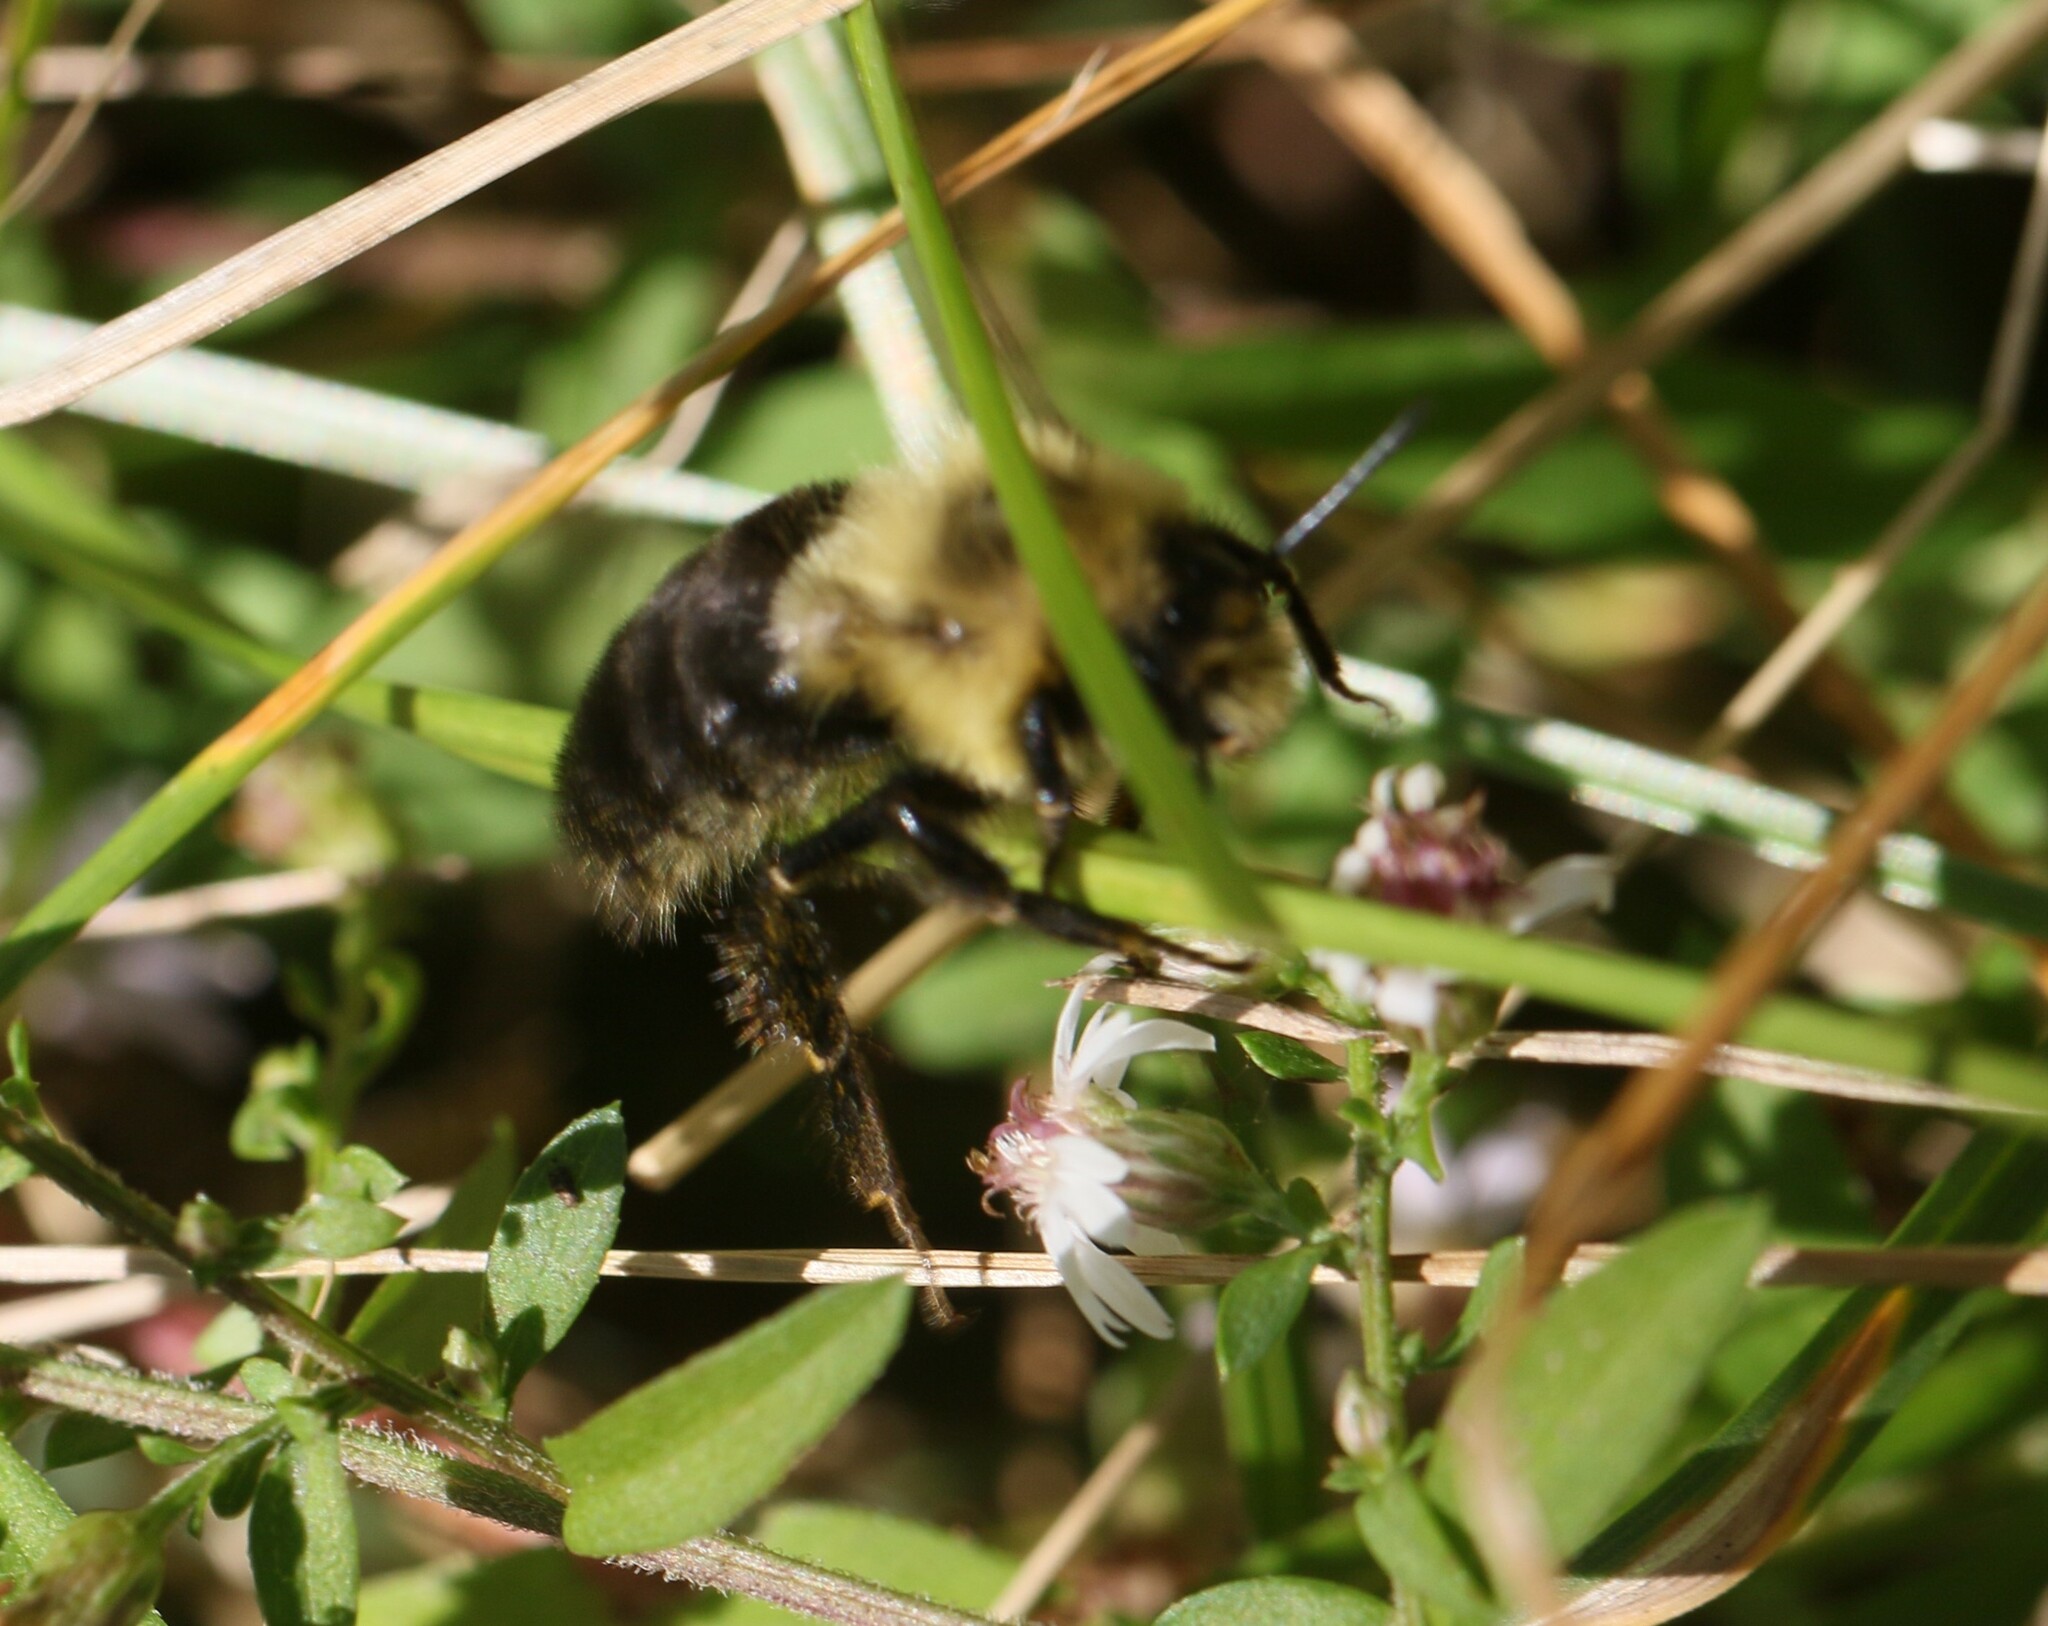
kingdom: Animalia
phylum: Arthropoda
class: Insecta
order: Hymenoptera
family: Apidae
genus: Bombus
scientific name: Bombus impatiens
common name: Common eastern bumble bee
